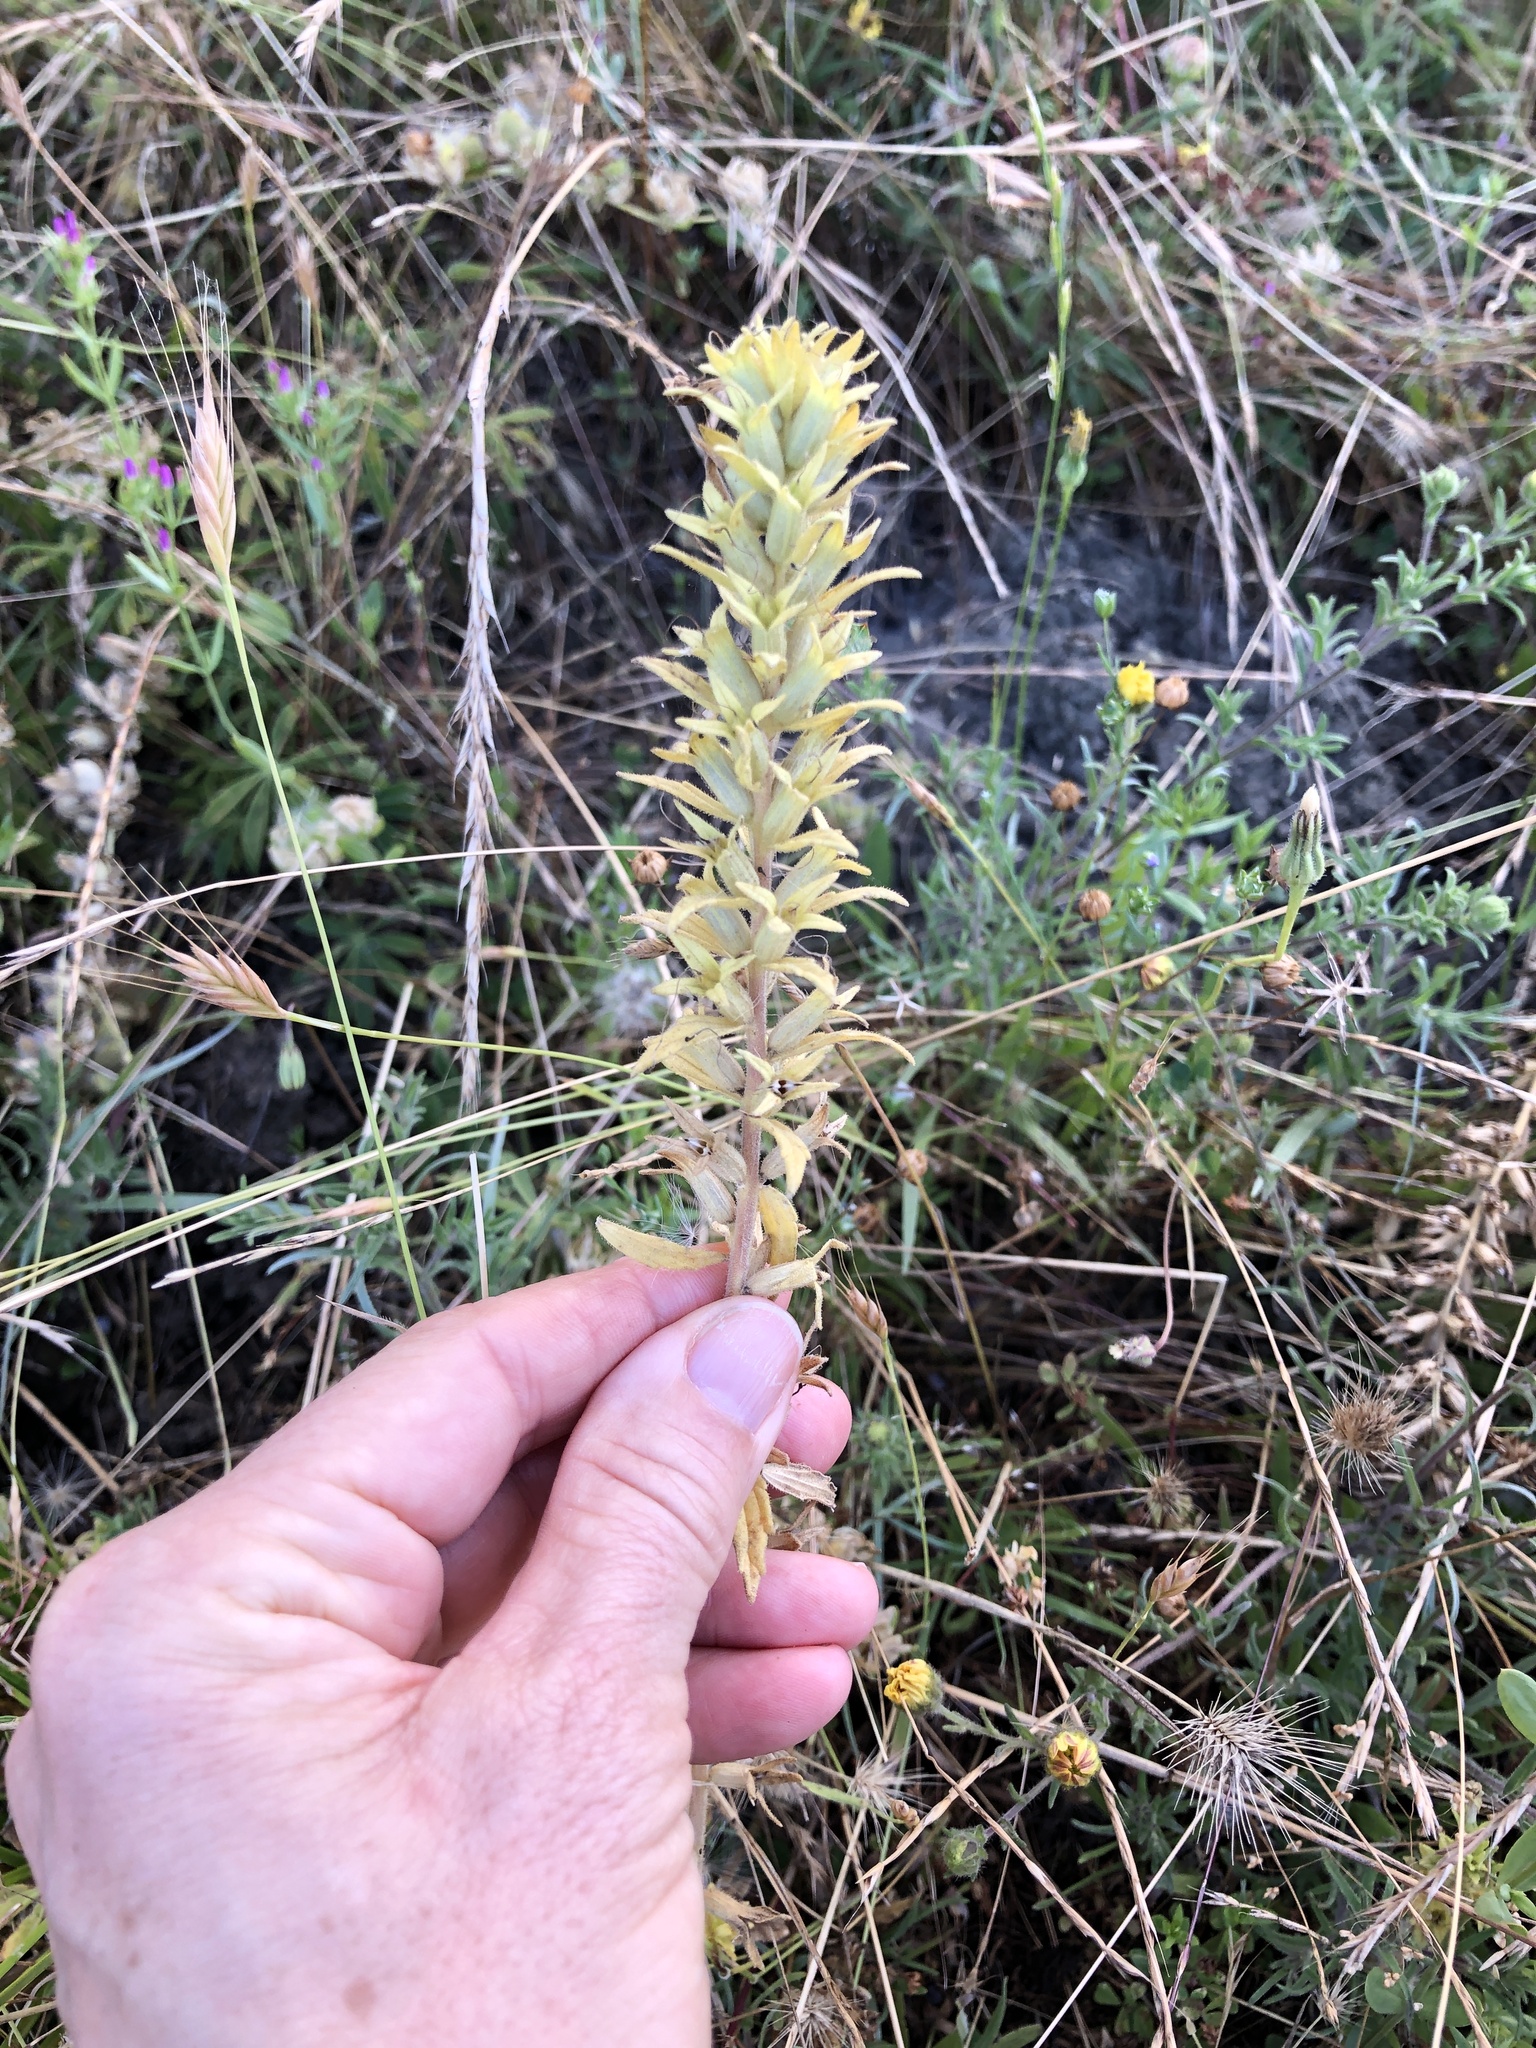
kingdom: Plantae
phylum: Tracheophyta
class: Magnoliopsida
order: Lamiales
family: Orobanchaceae
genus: Bellardia
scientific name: Bellardia viscosa
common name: Sticky parentucellia
